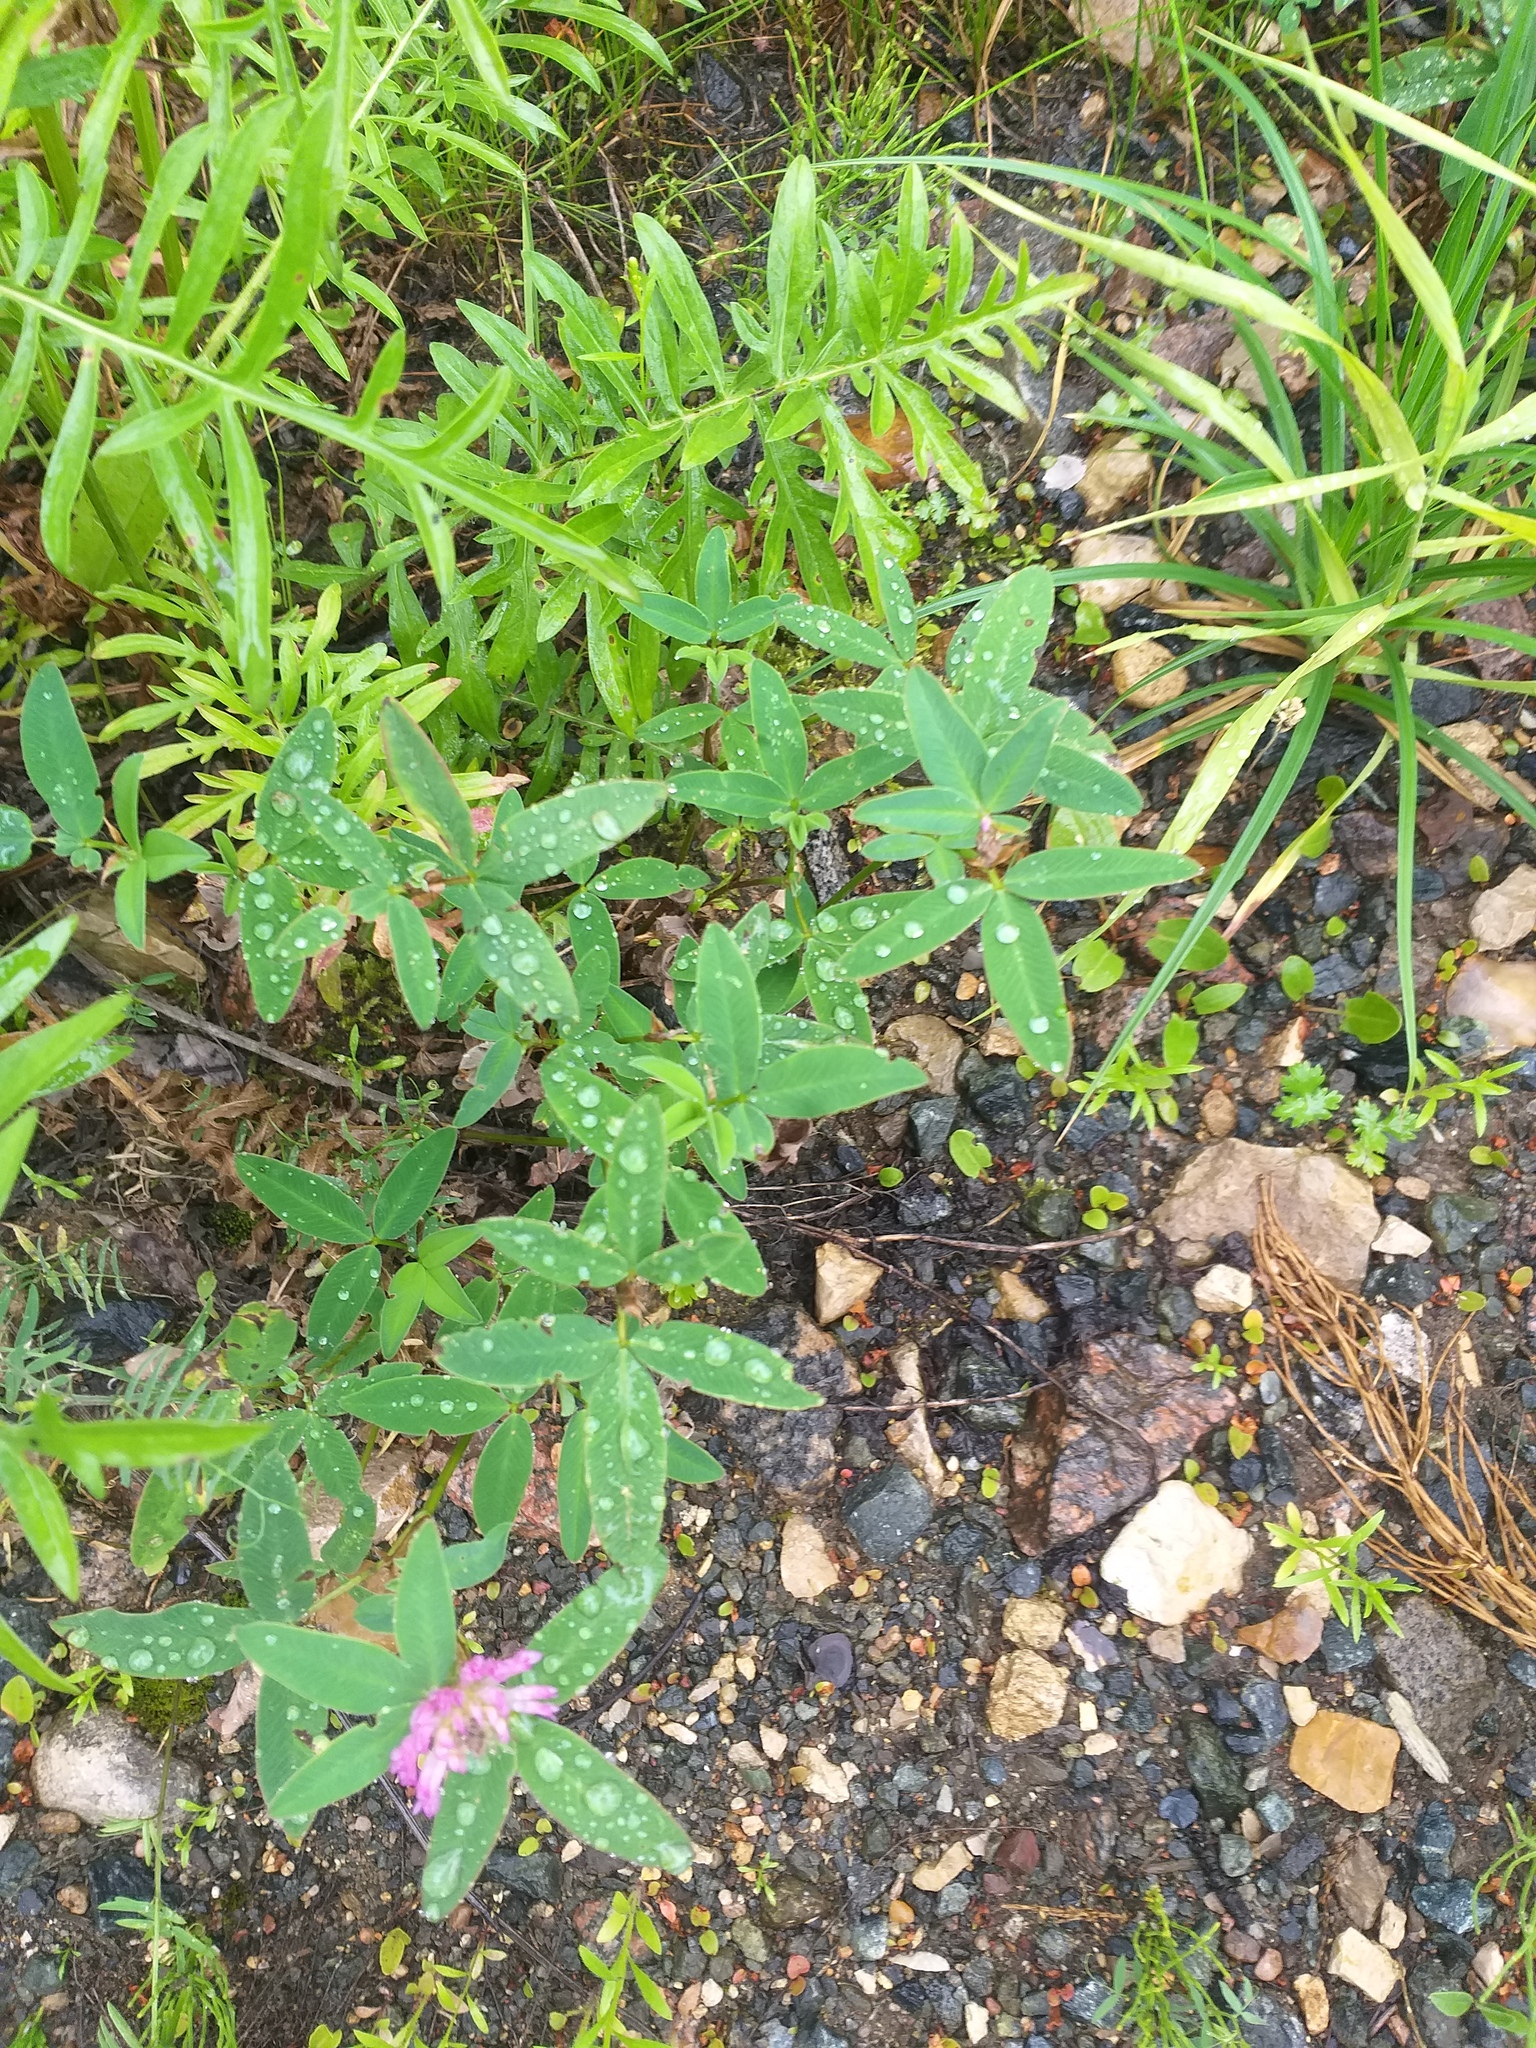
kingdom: Plantae
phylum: Tracheophyta
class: Magnoliopsida
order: Fabales
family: Fabaceae
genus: Trifolium
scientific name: Trifolium medium
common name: Zigzag clover
